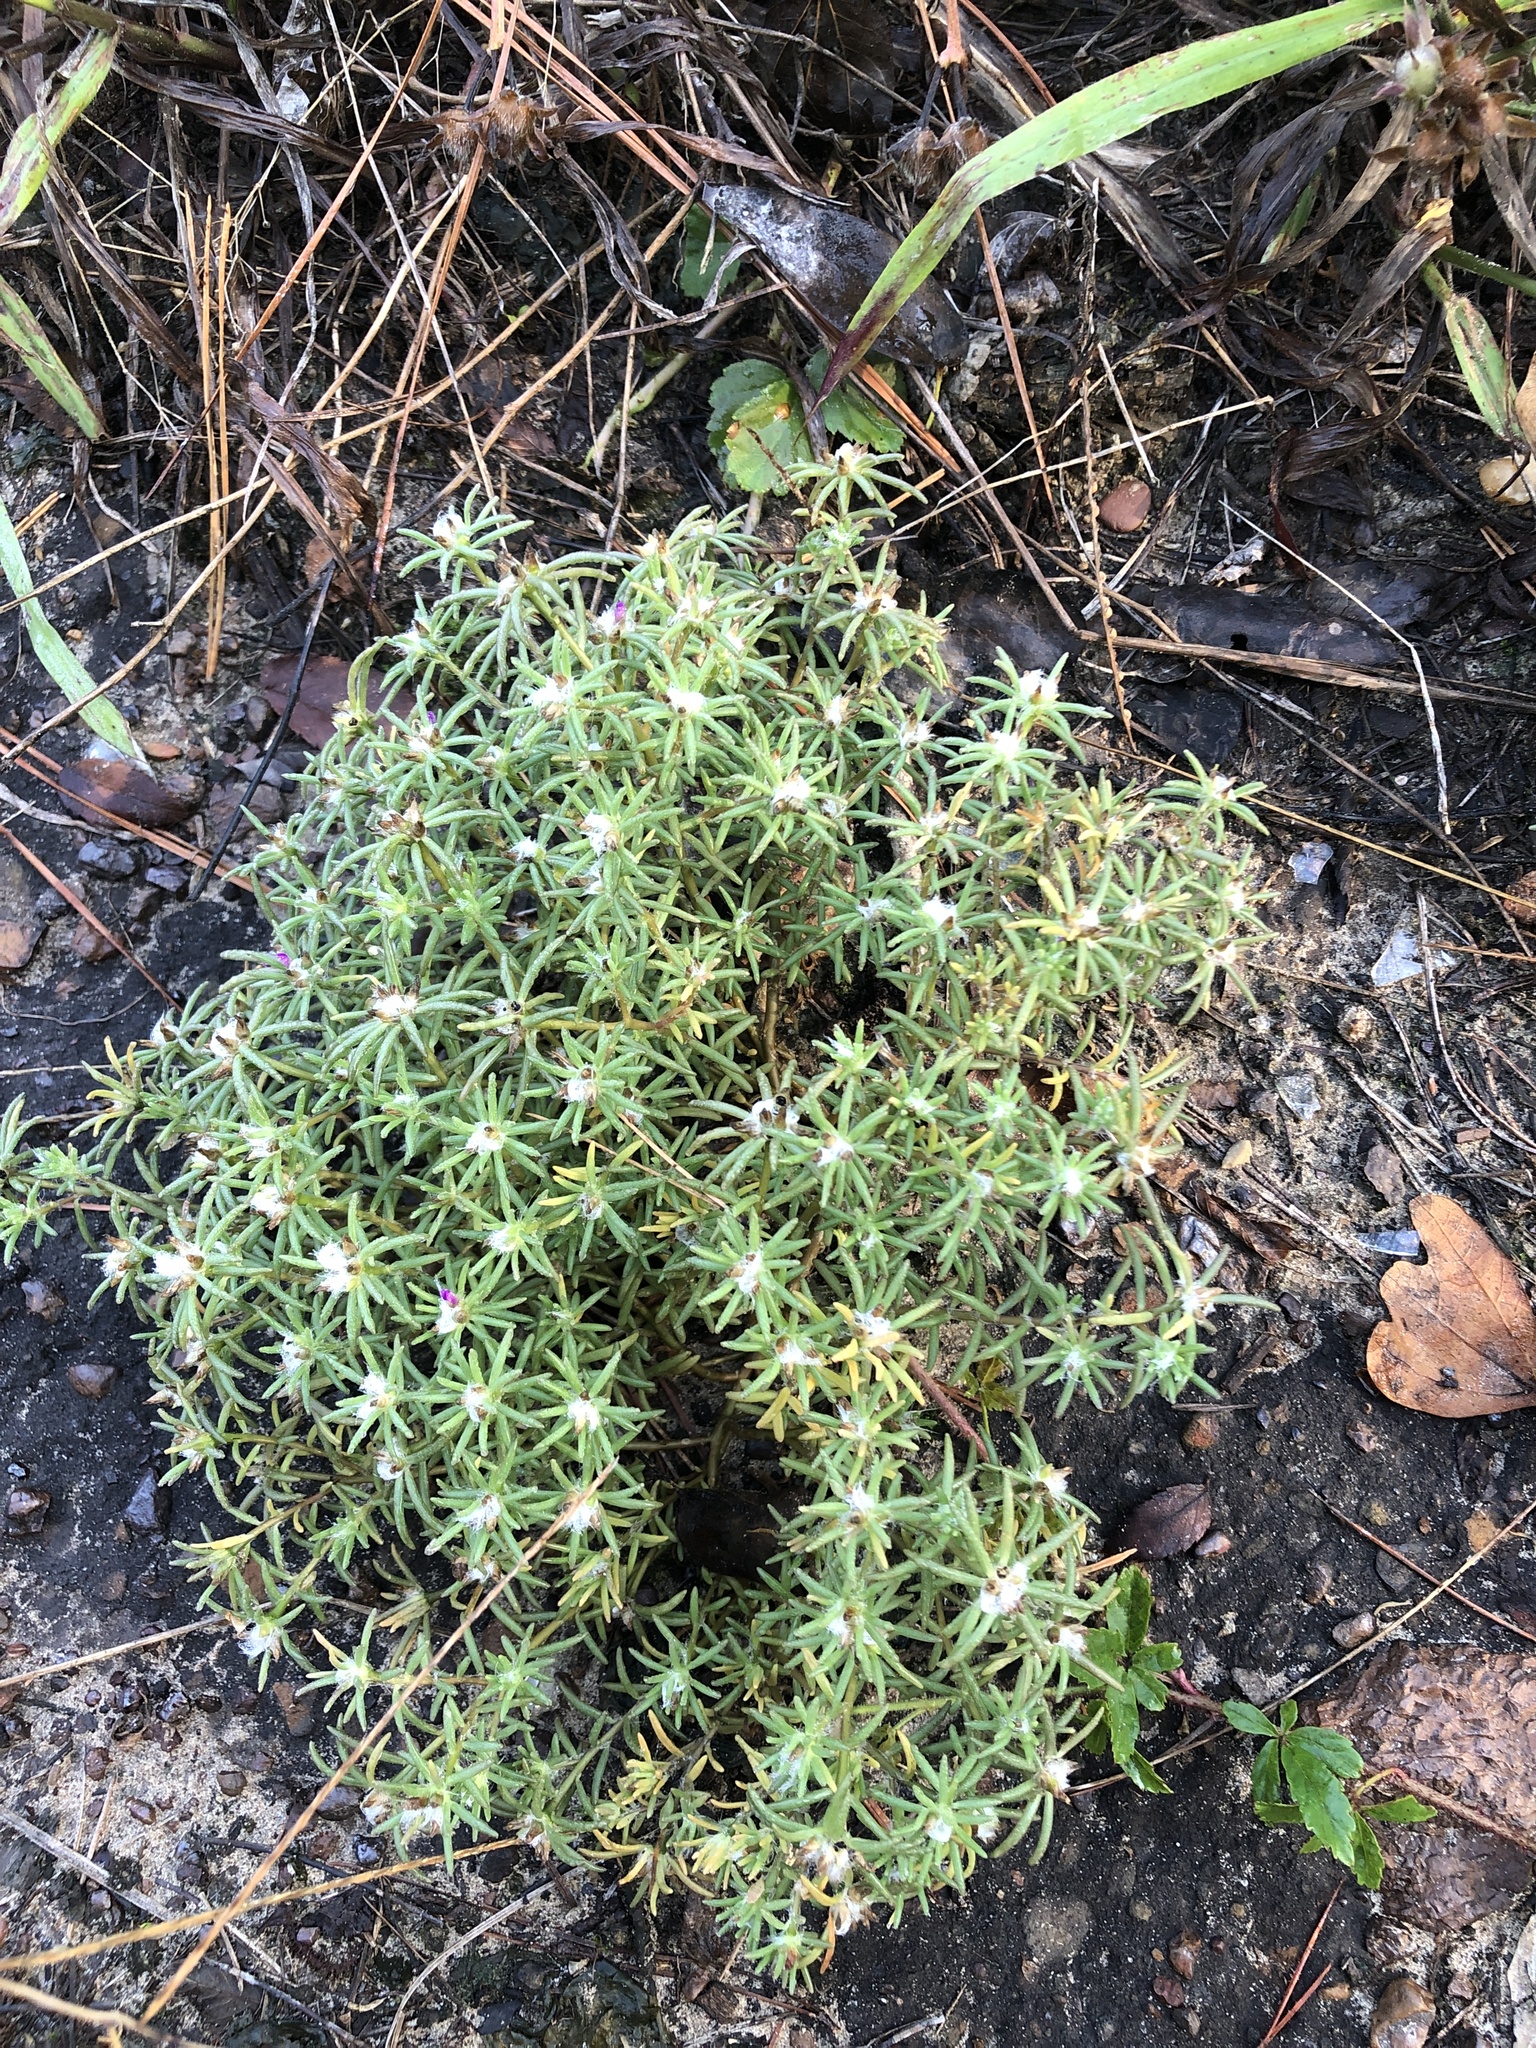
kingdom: Plantae
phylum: Tracheophyta
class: Magnoliopsida
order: Caryophyllales
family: Portulacaceae
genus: Portulaca
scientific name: Portulaca pilosa
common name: Kiss me quick
